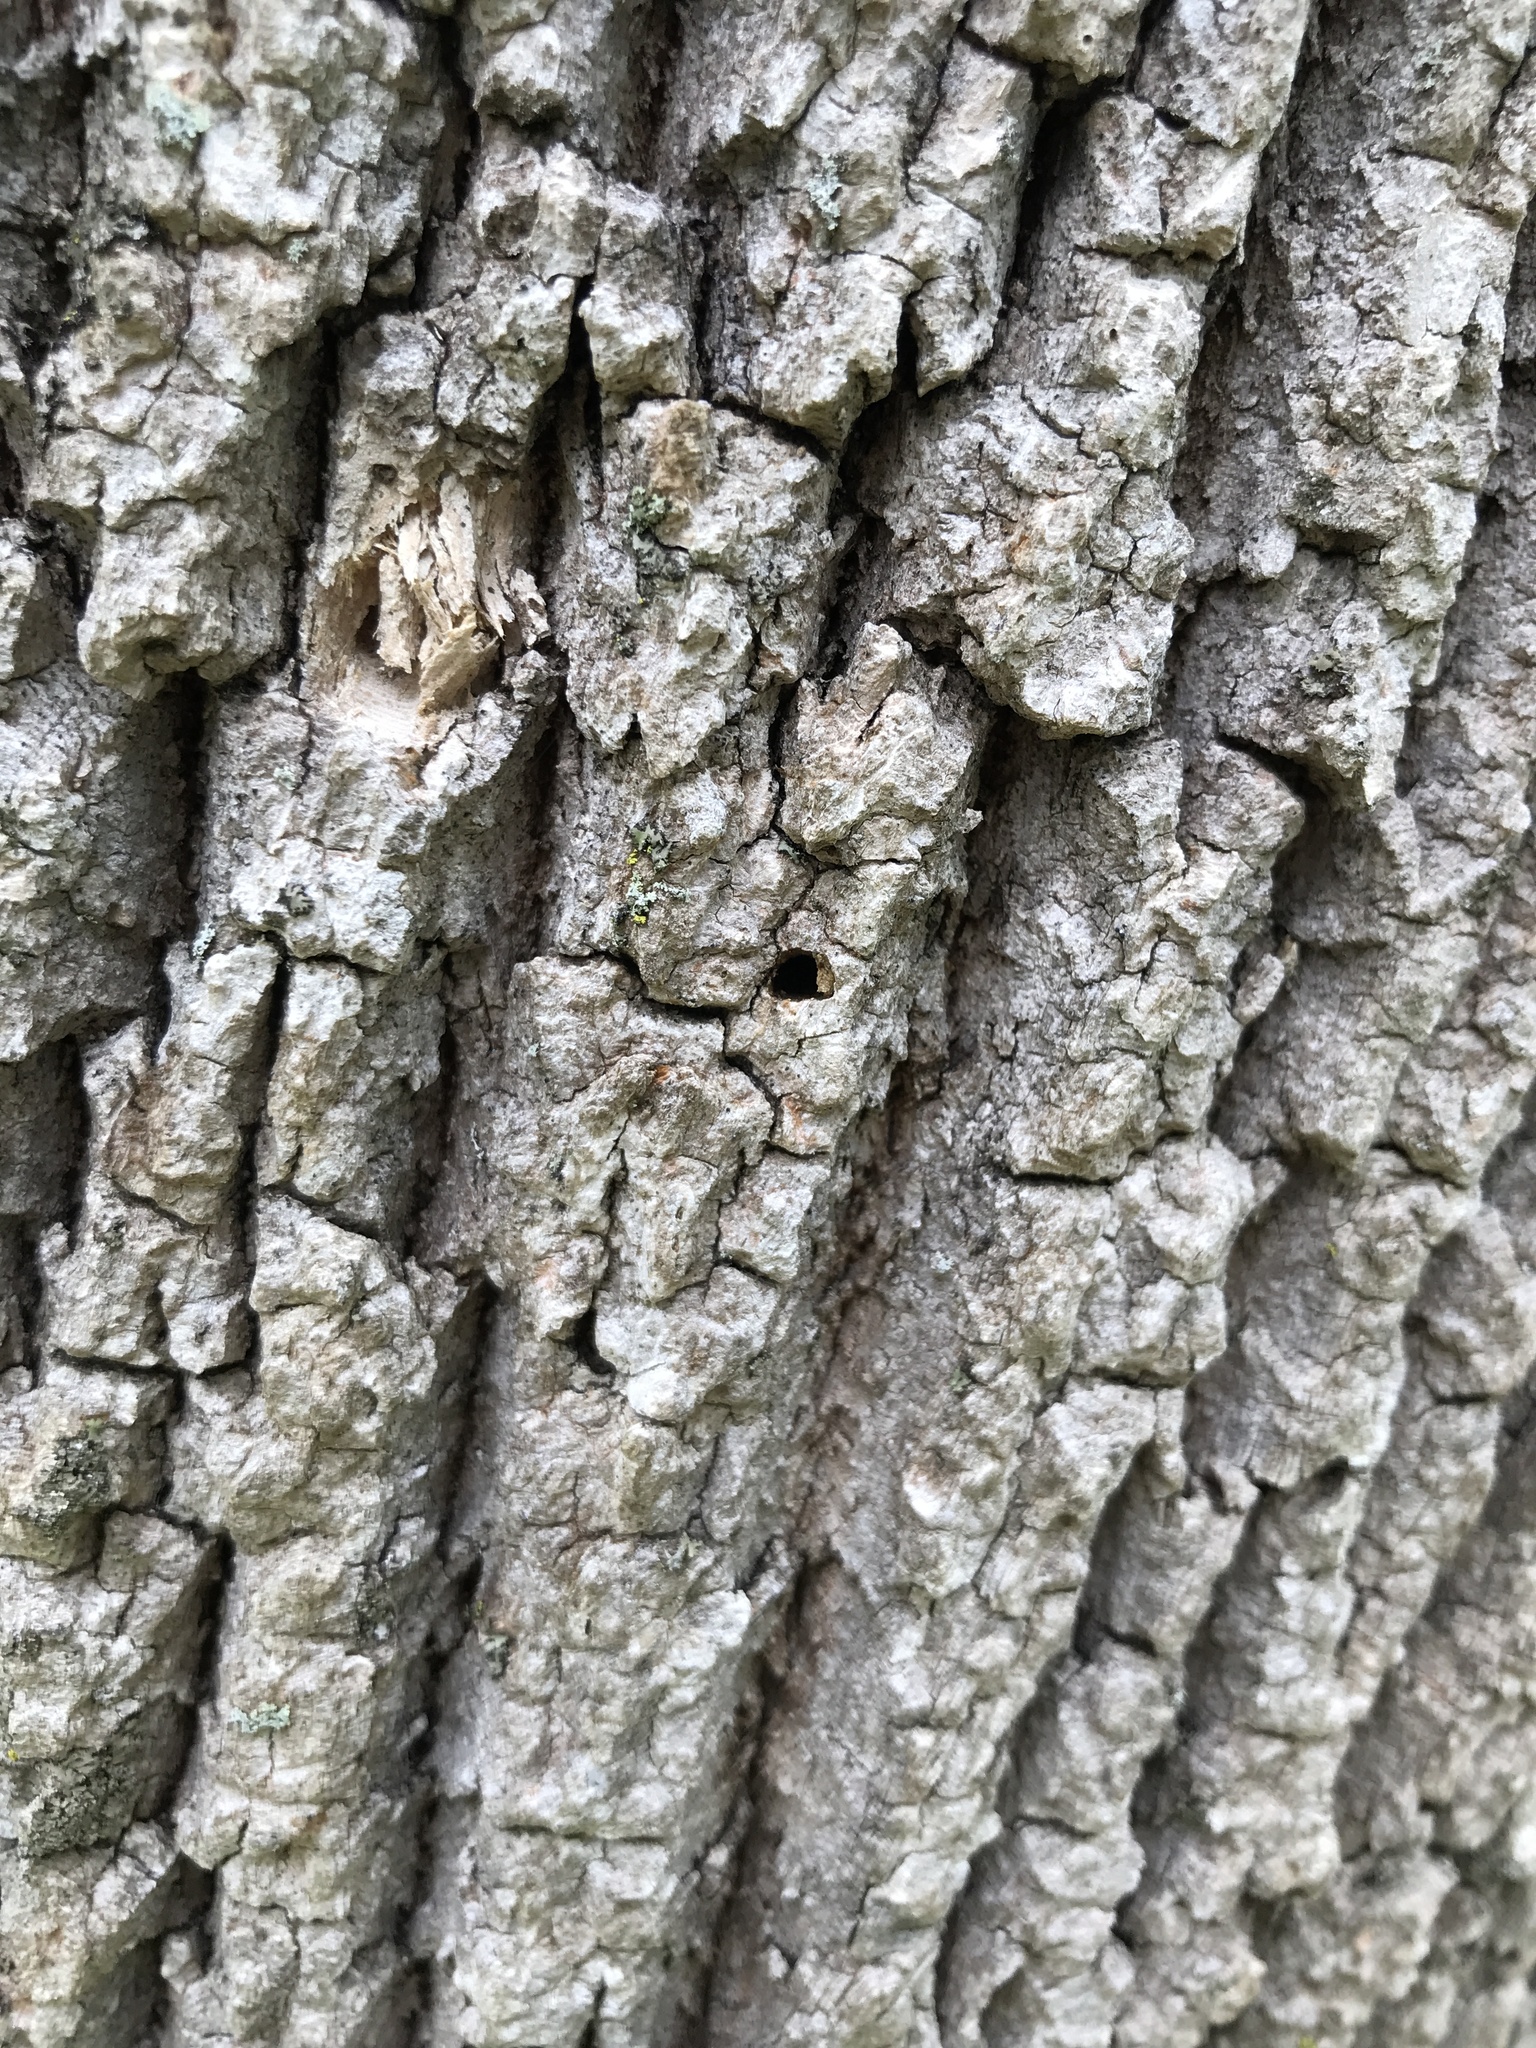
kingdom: Animalia
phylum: Arthropoda
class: Insecta
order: Coleoptera
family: Buprestidae
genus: Agrilus
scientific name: Agrilus planipennis
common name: Emerald ash borer
